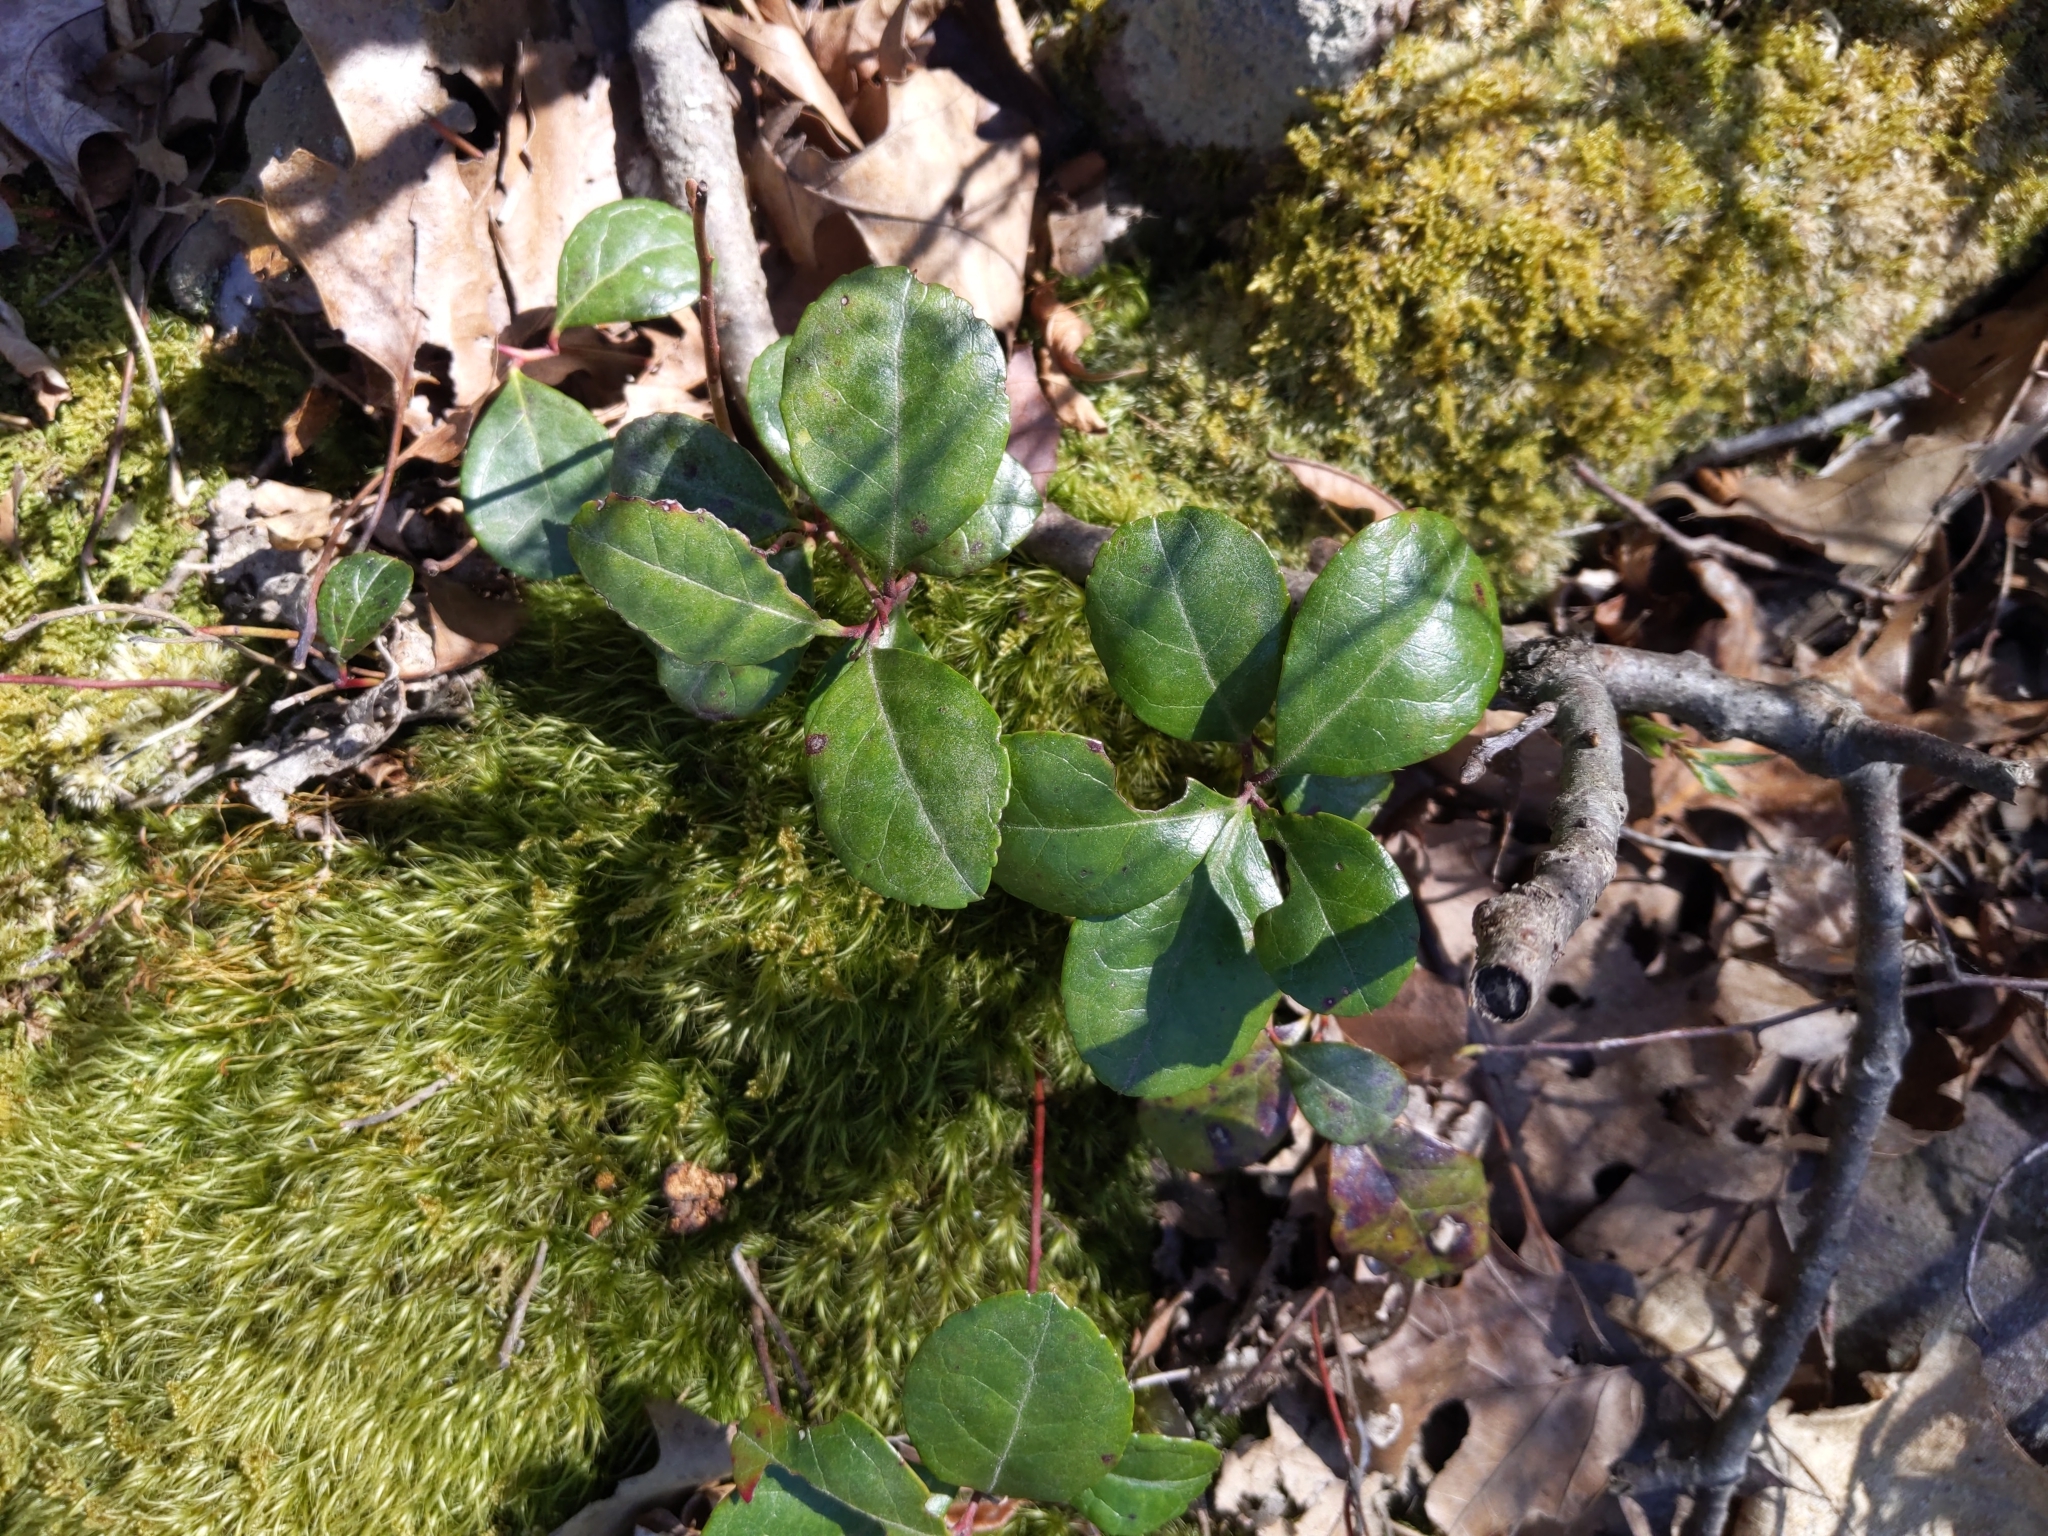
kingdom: Plantae
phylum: Tracheophyta
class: Magnoliopsida
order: Ericales
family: Ericaceae
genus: Gaultheria
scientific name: Gaultheria procumbens
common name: Checkerberry
